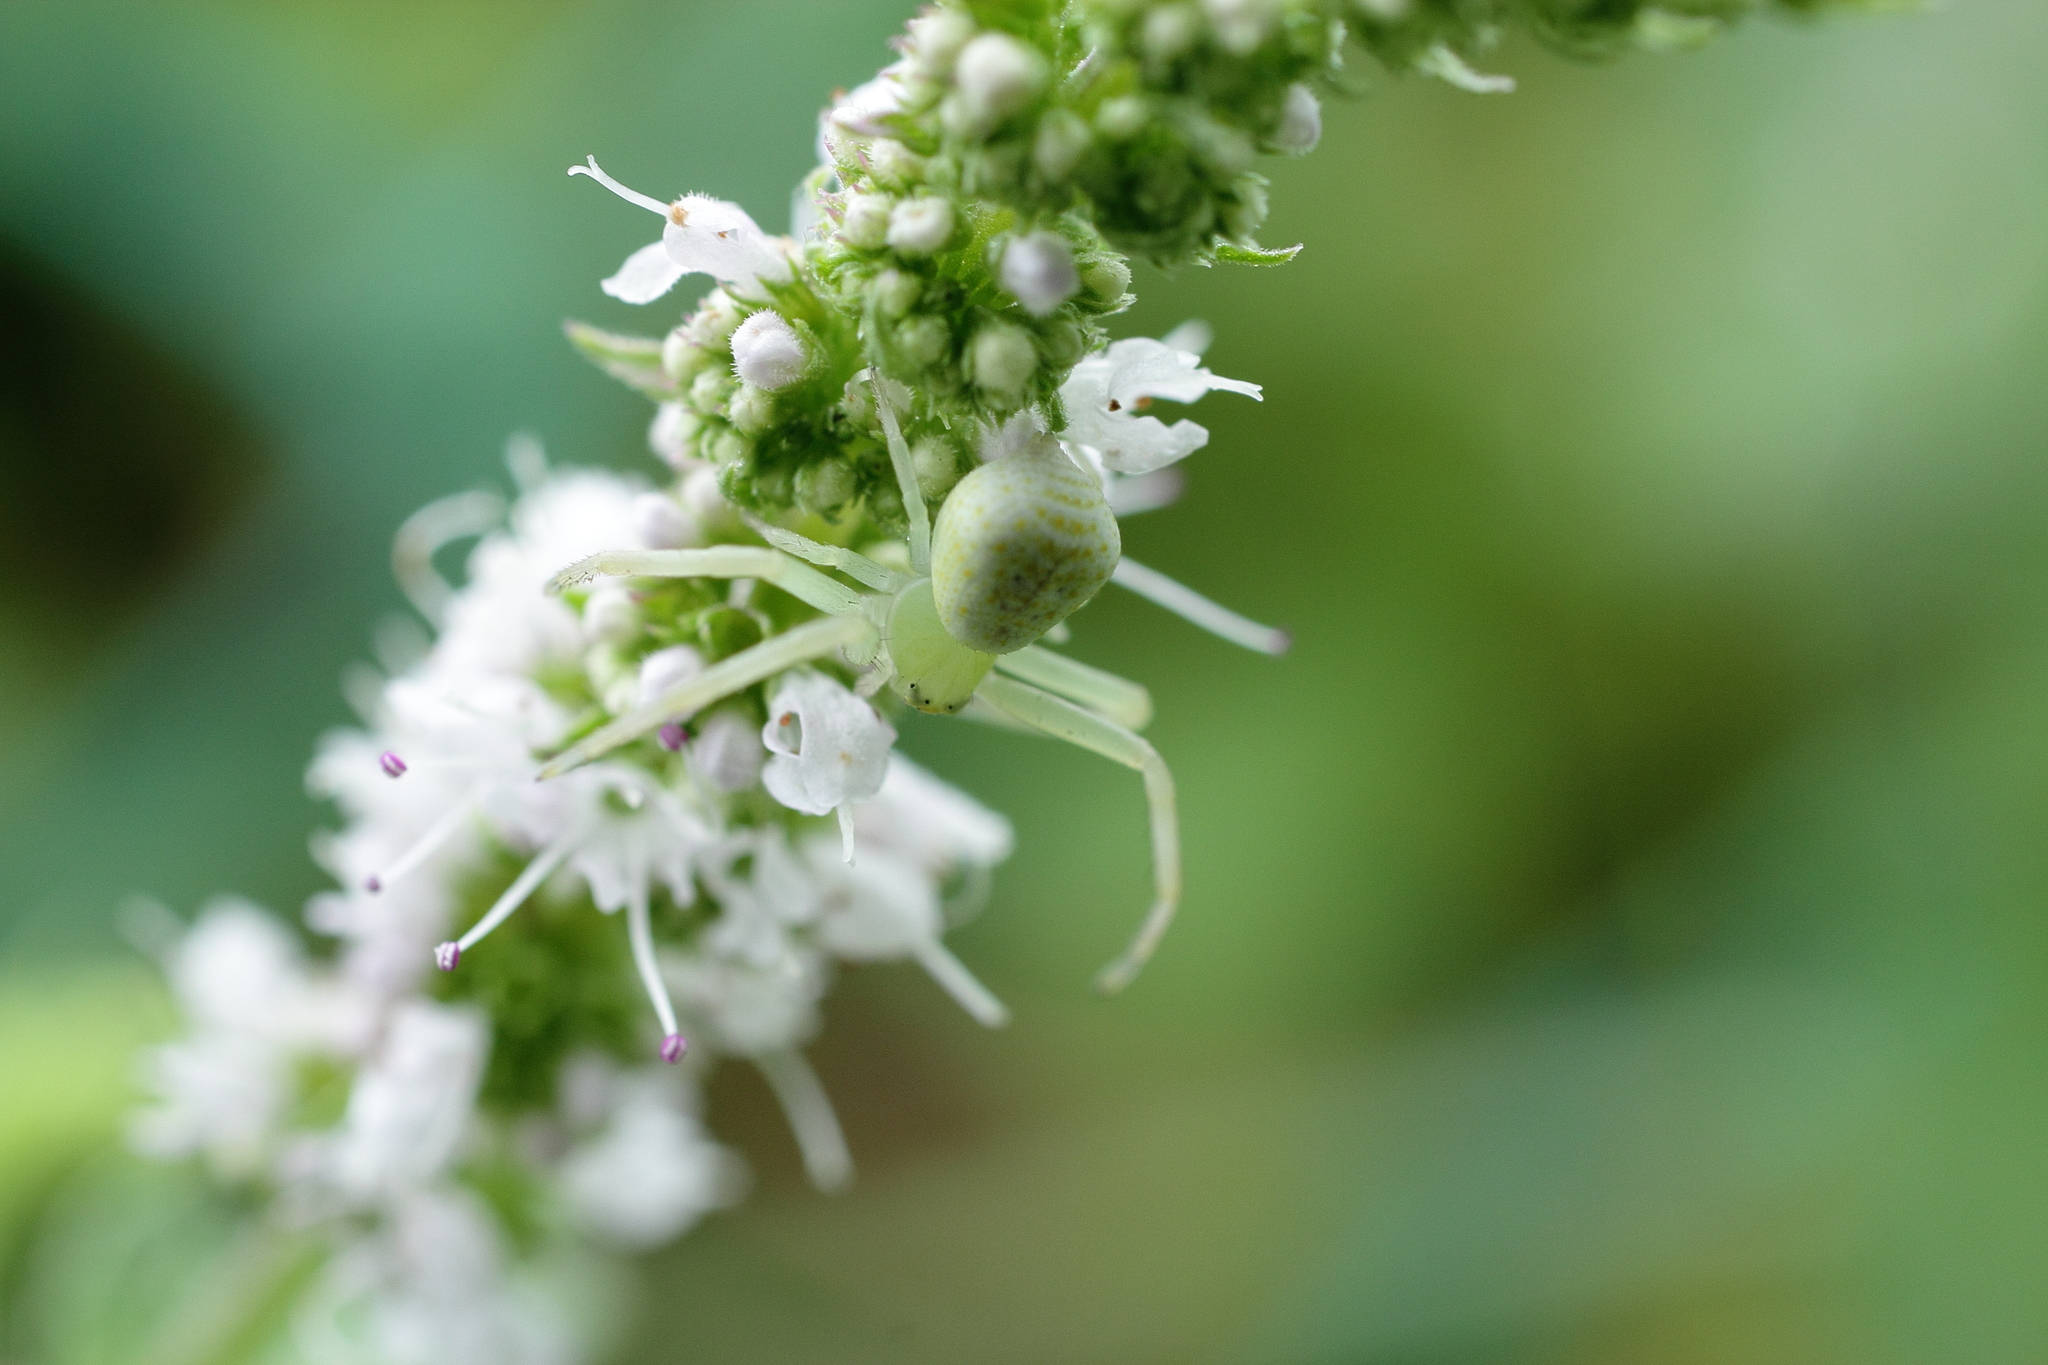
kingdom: Animalia
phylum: Arthropoda
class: Arachnida
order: Araneae
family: Thomisidae
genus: Ebrechtella
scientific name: Ebrechtella tricuspidata
